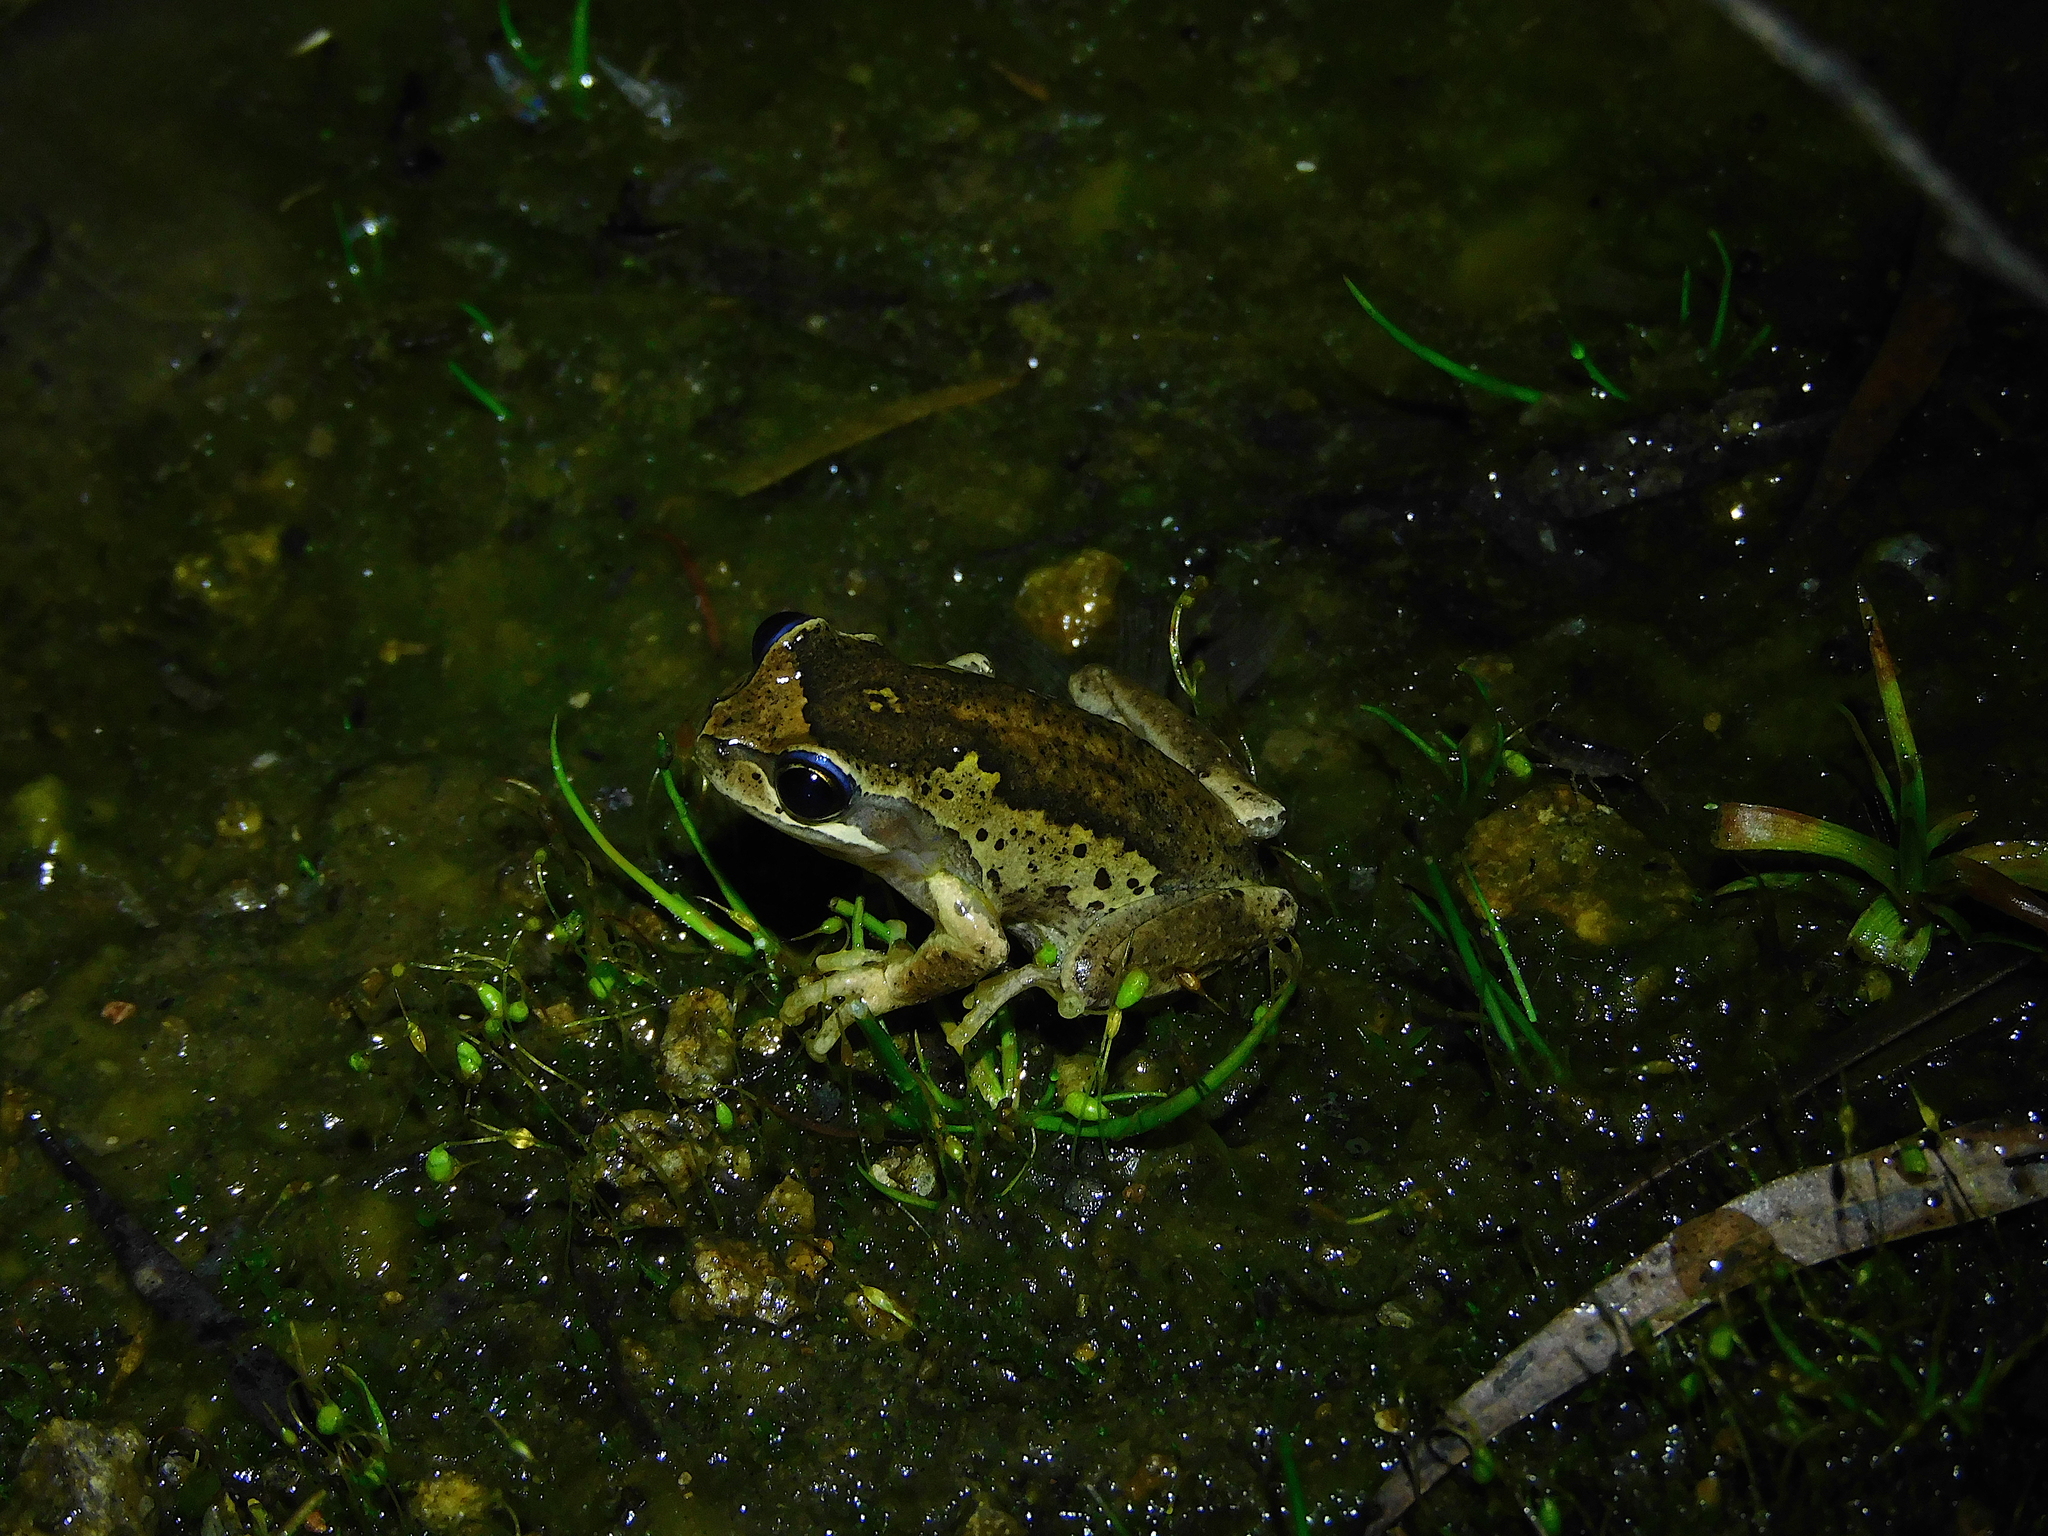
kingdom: Animalia
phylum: Chordata
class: Amphibia
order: Anura
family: Pelodryadidae
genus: Litoria
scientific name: Litoria ewingii
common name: Southern brown tree frog
